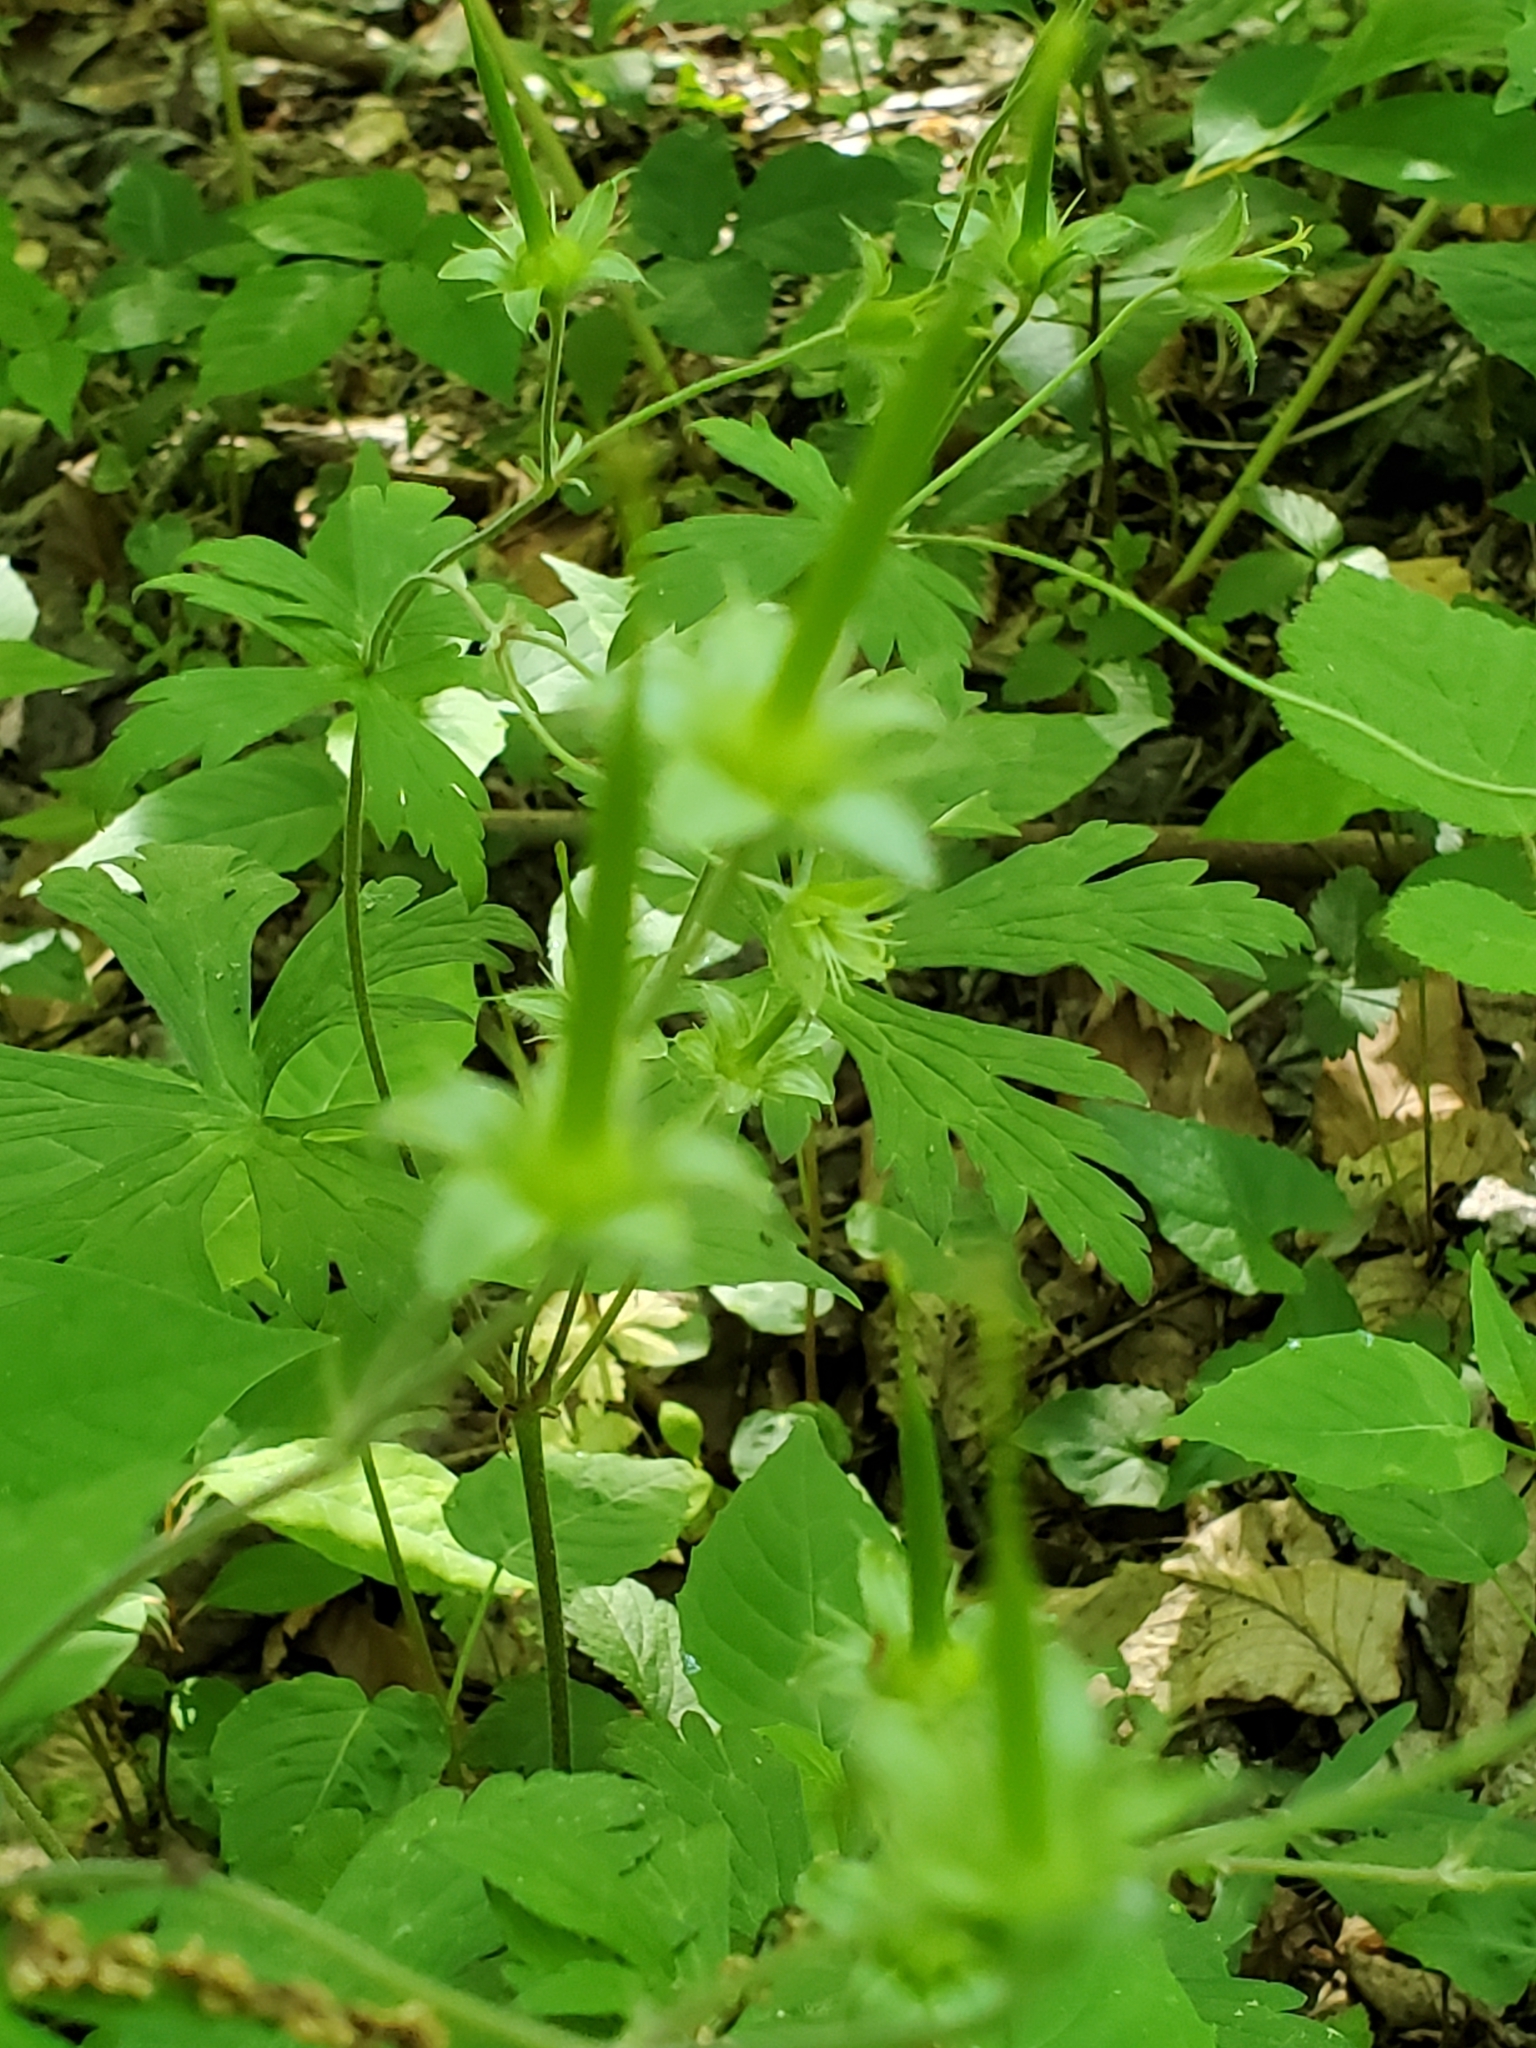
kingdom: Plantae
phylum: Tracheophyta
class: Magnoliopsida
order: Geraniales
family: Geraniaceae
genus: Geranium
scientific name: Geranium maculatum
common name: Spotted geranium
